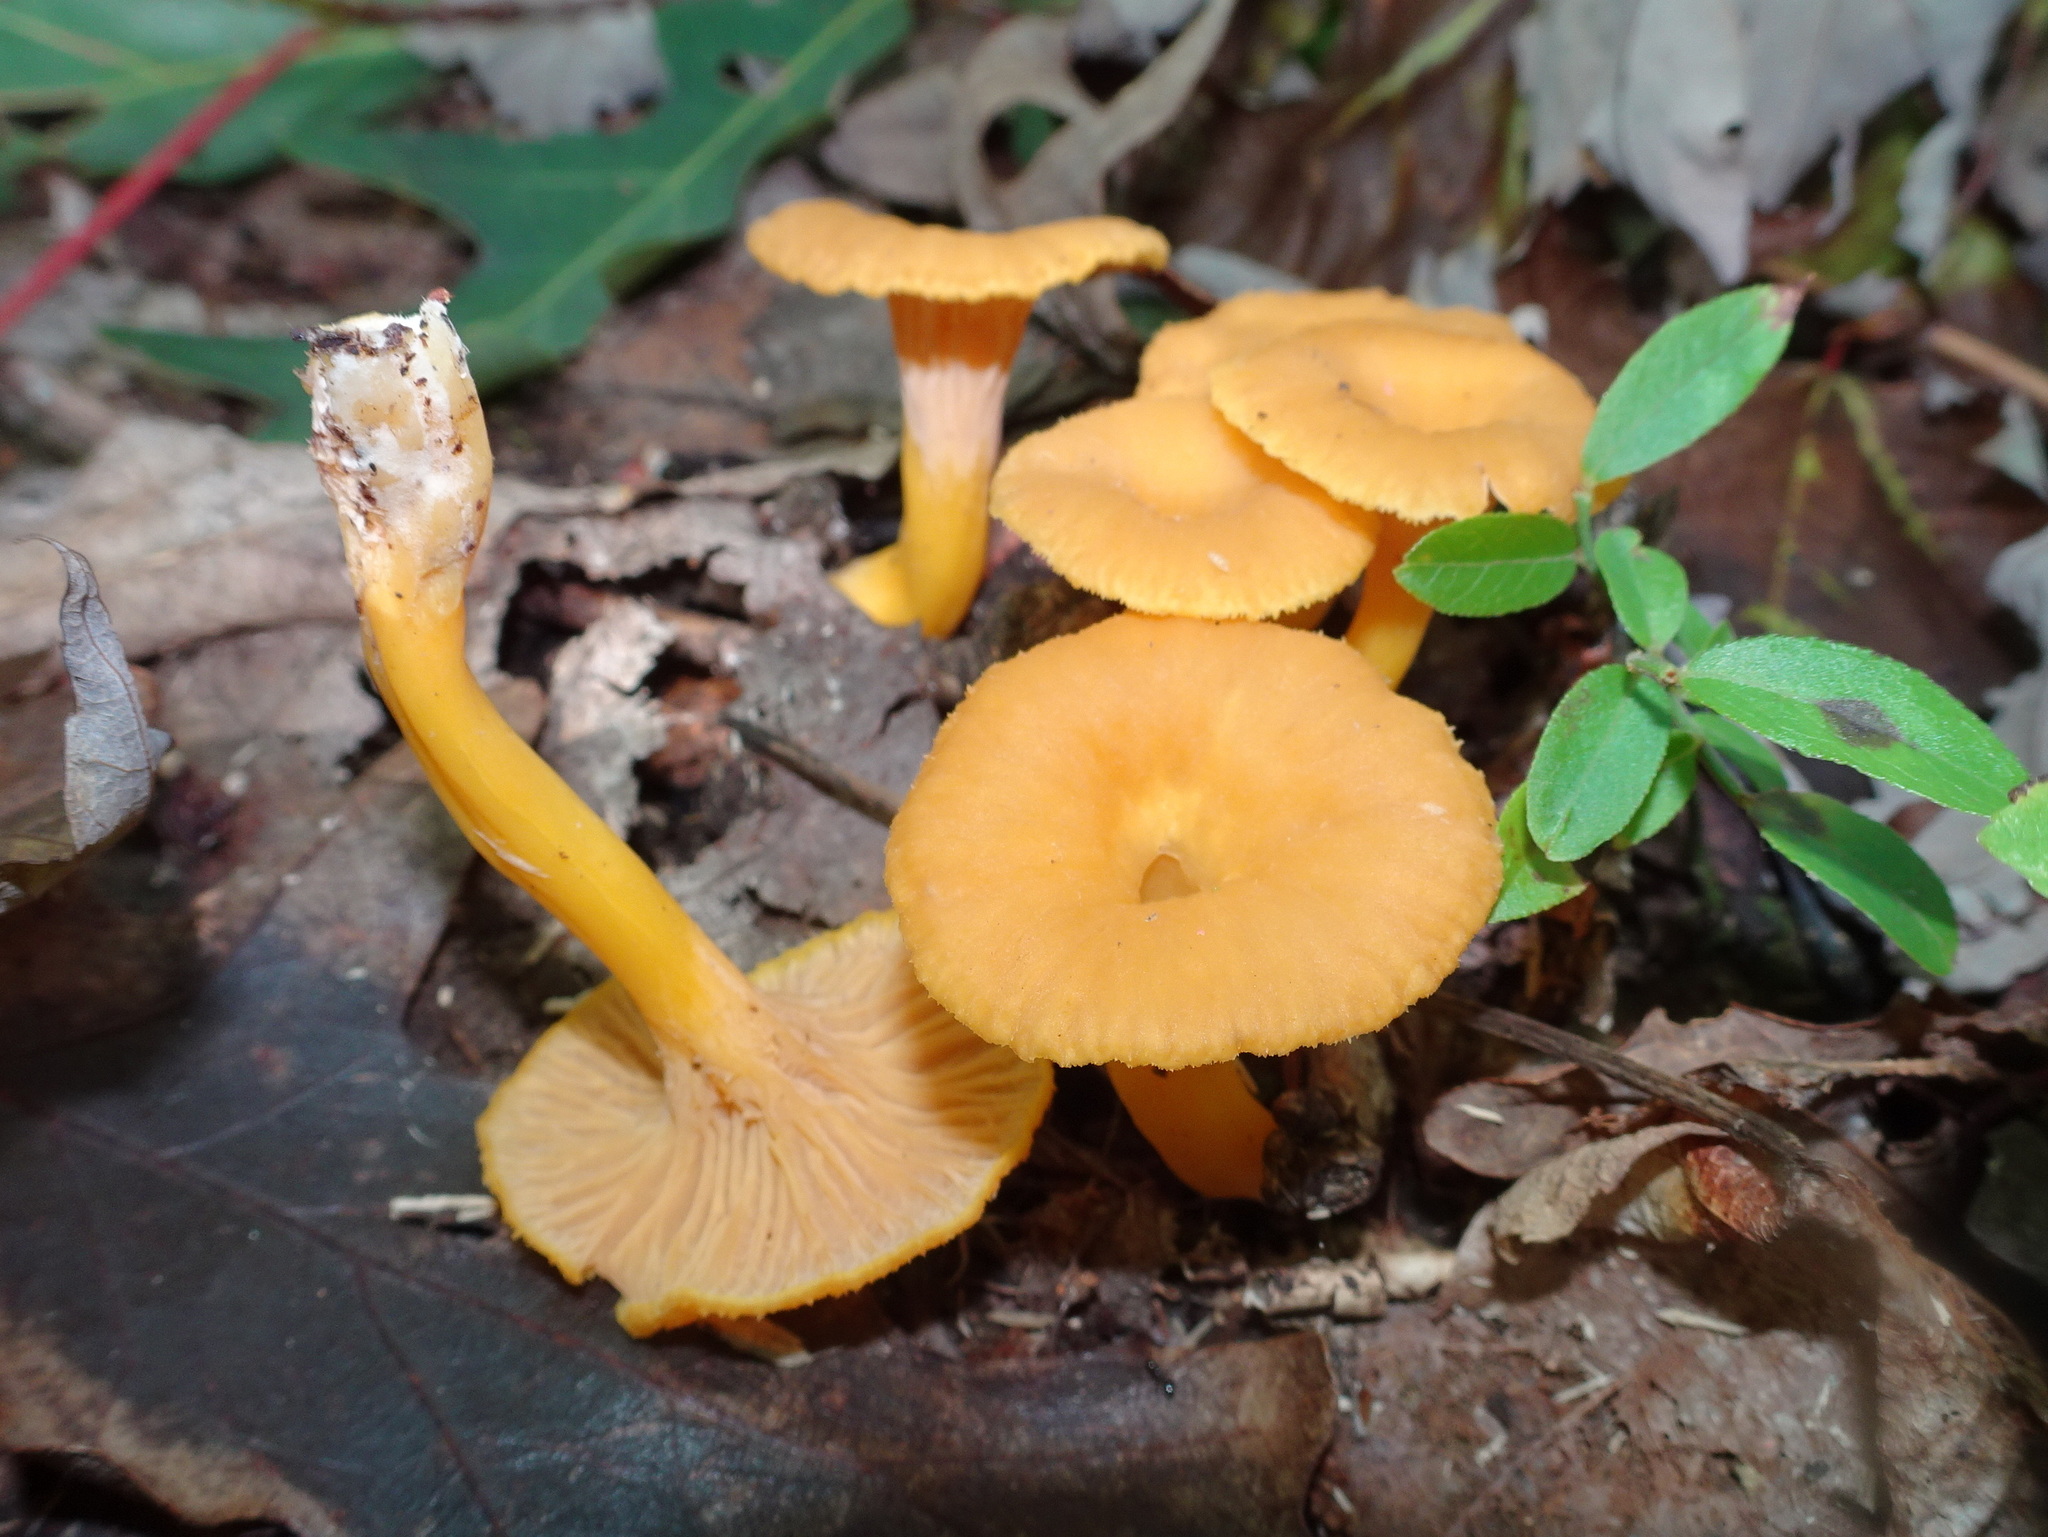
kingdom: Fungi
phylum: Basidiomycota
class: Agaricomycetes
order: Cantharellales
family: Hydnaceae
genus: Craterellus
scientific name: Craterellus ignicolor
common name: Flame chanterelle
